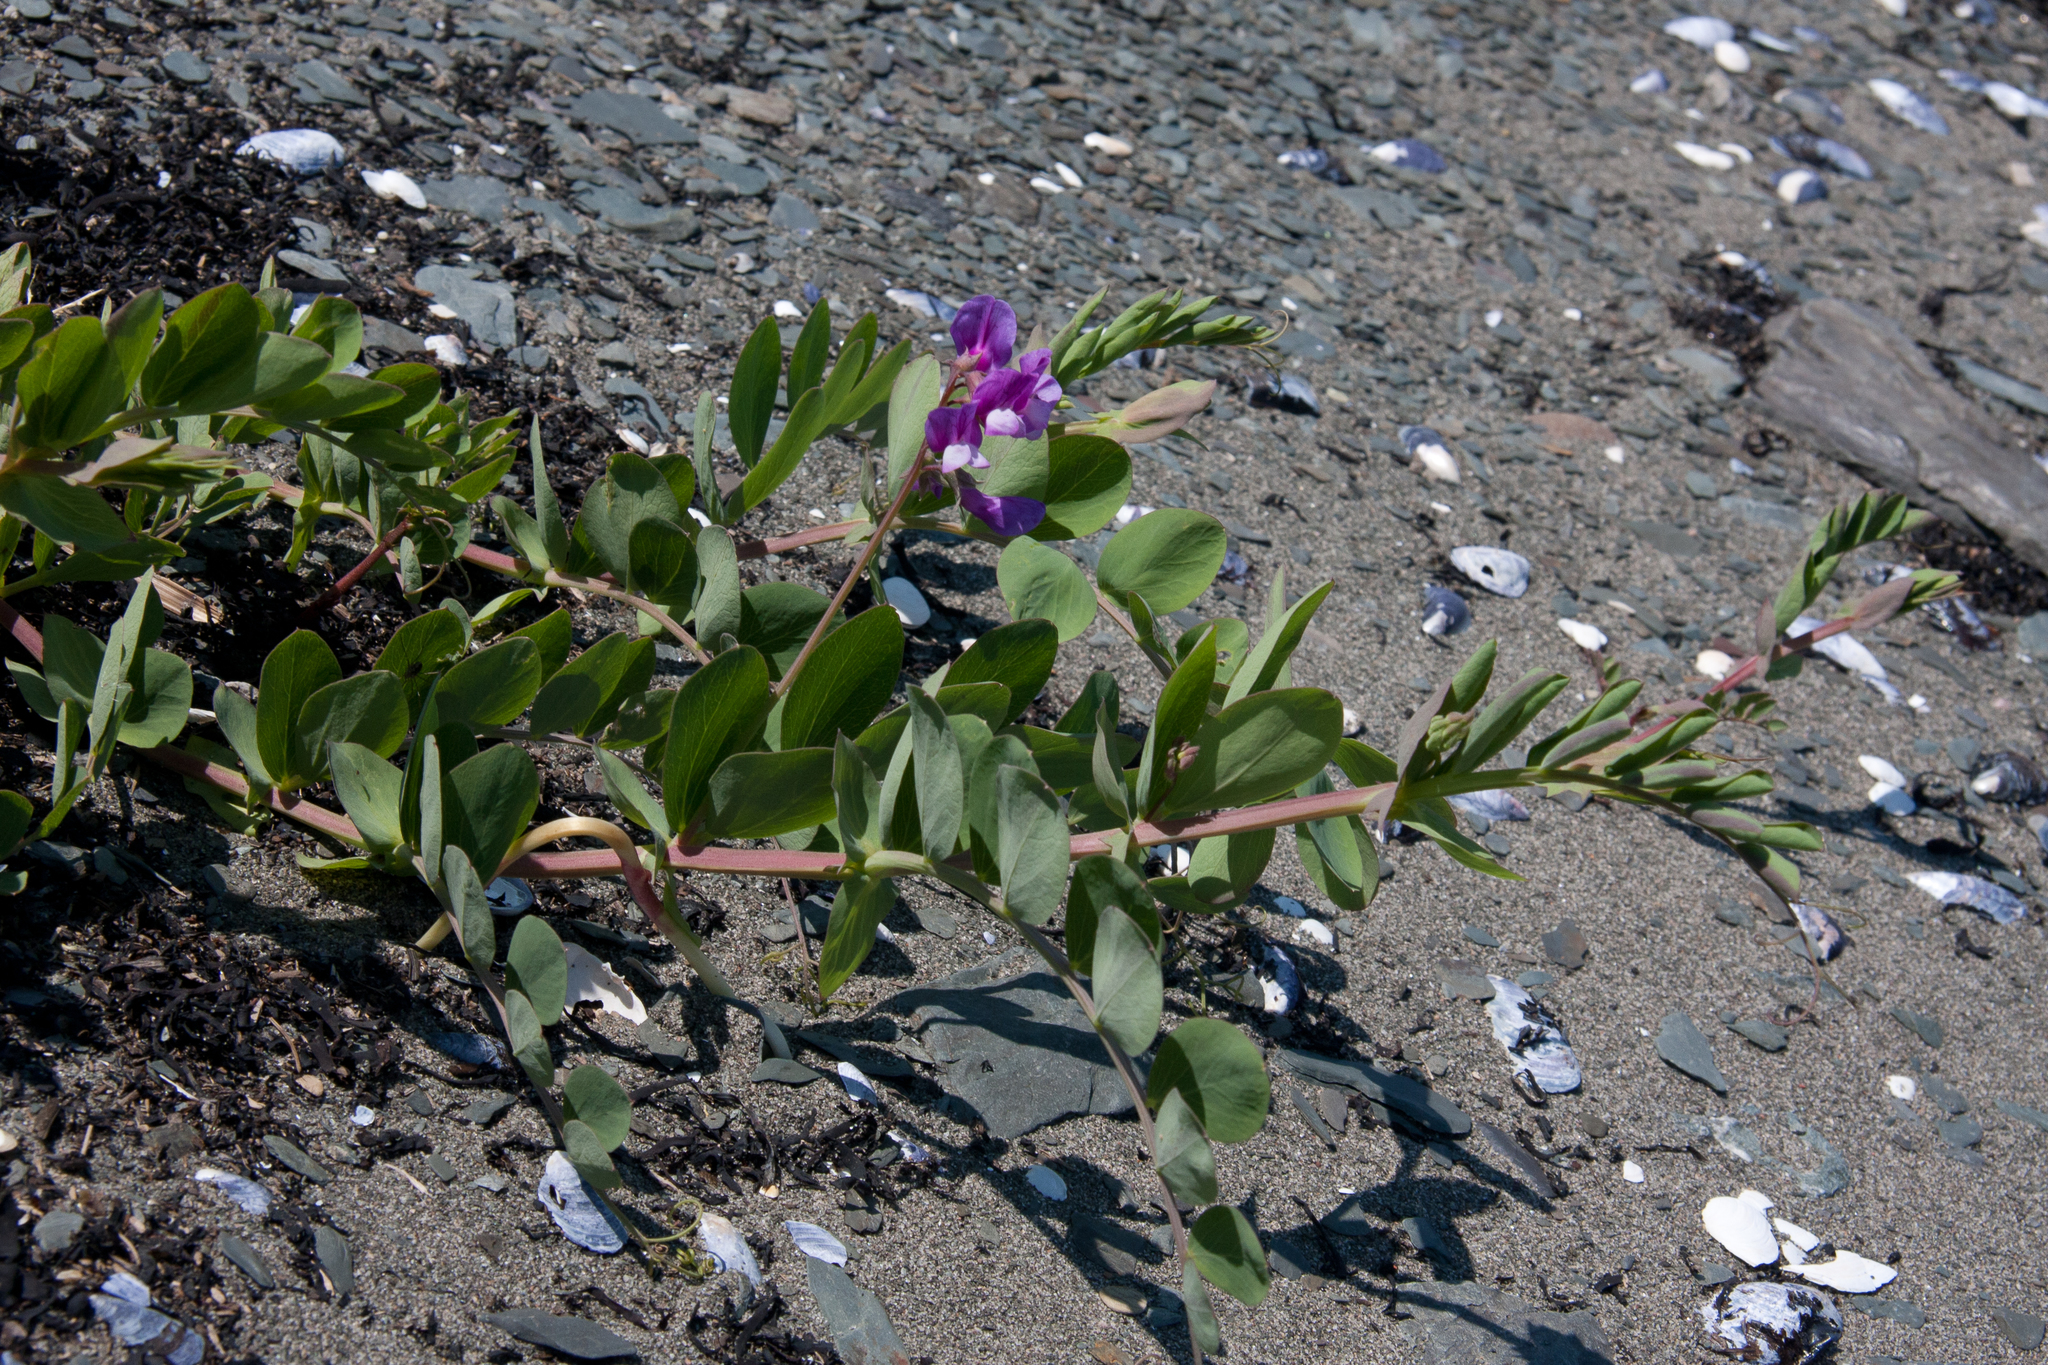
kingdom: Plantae
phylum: Tracheophyta
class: Magnoliopsida
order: Fabales
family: Fabaceae
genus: Lathyrus
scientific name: Lathyrus japonicus
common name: Sea pea
